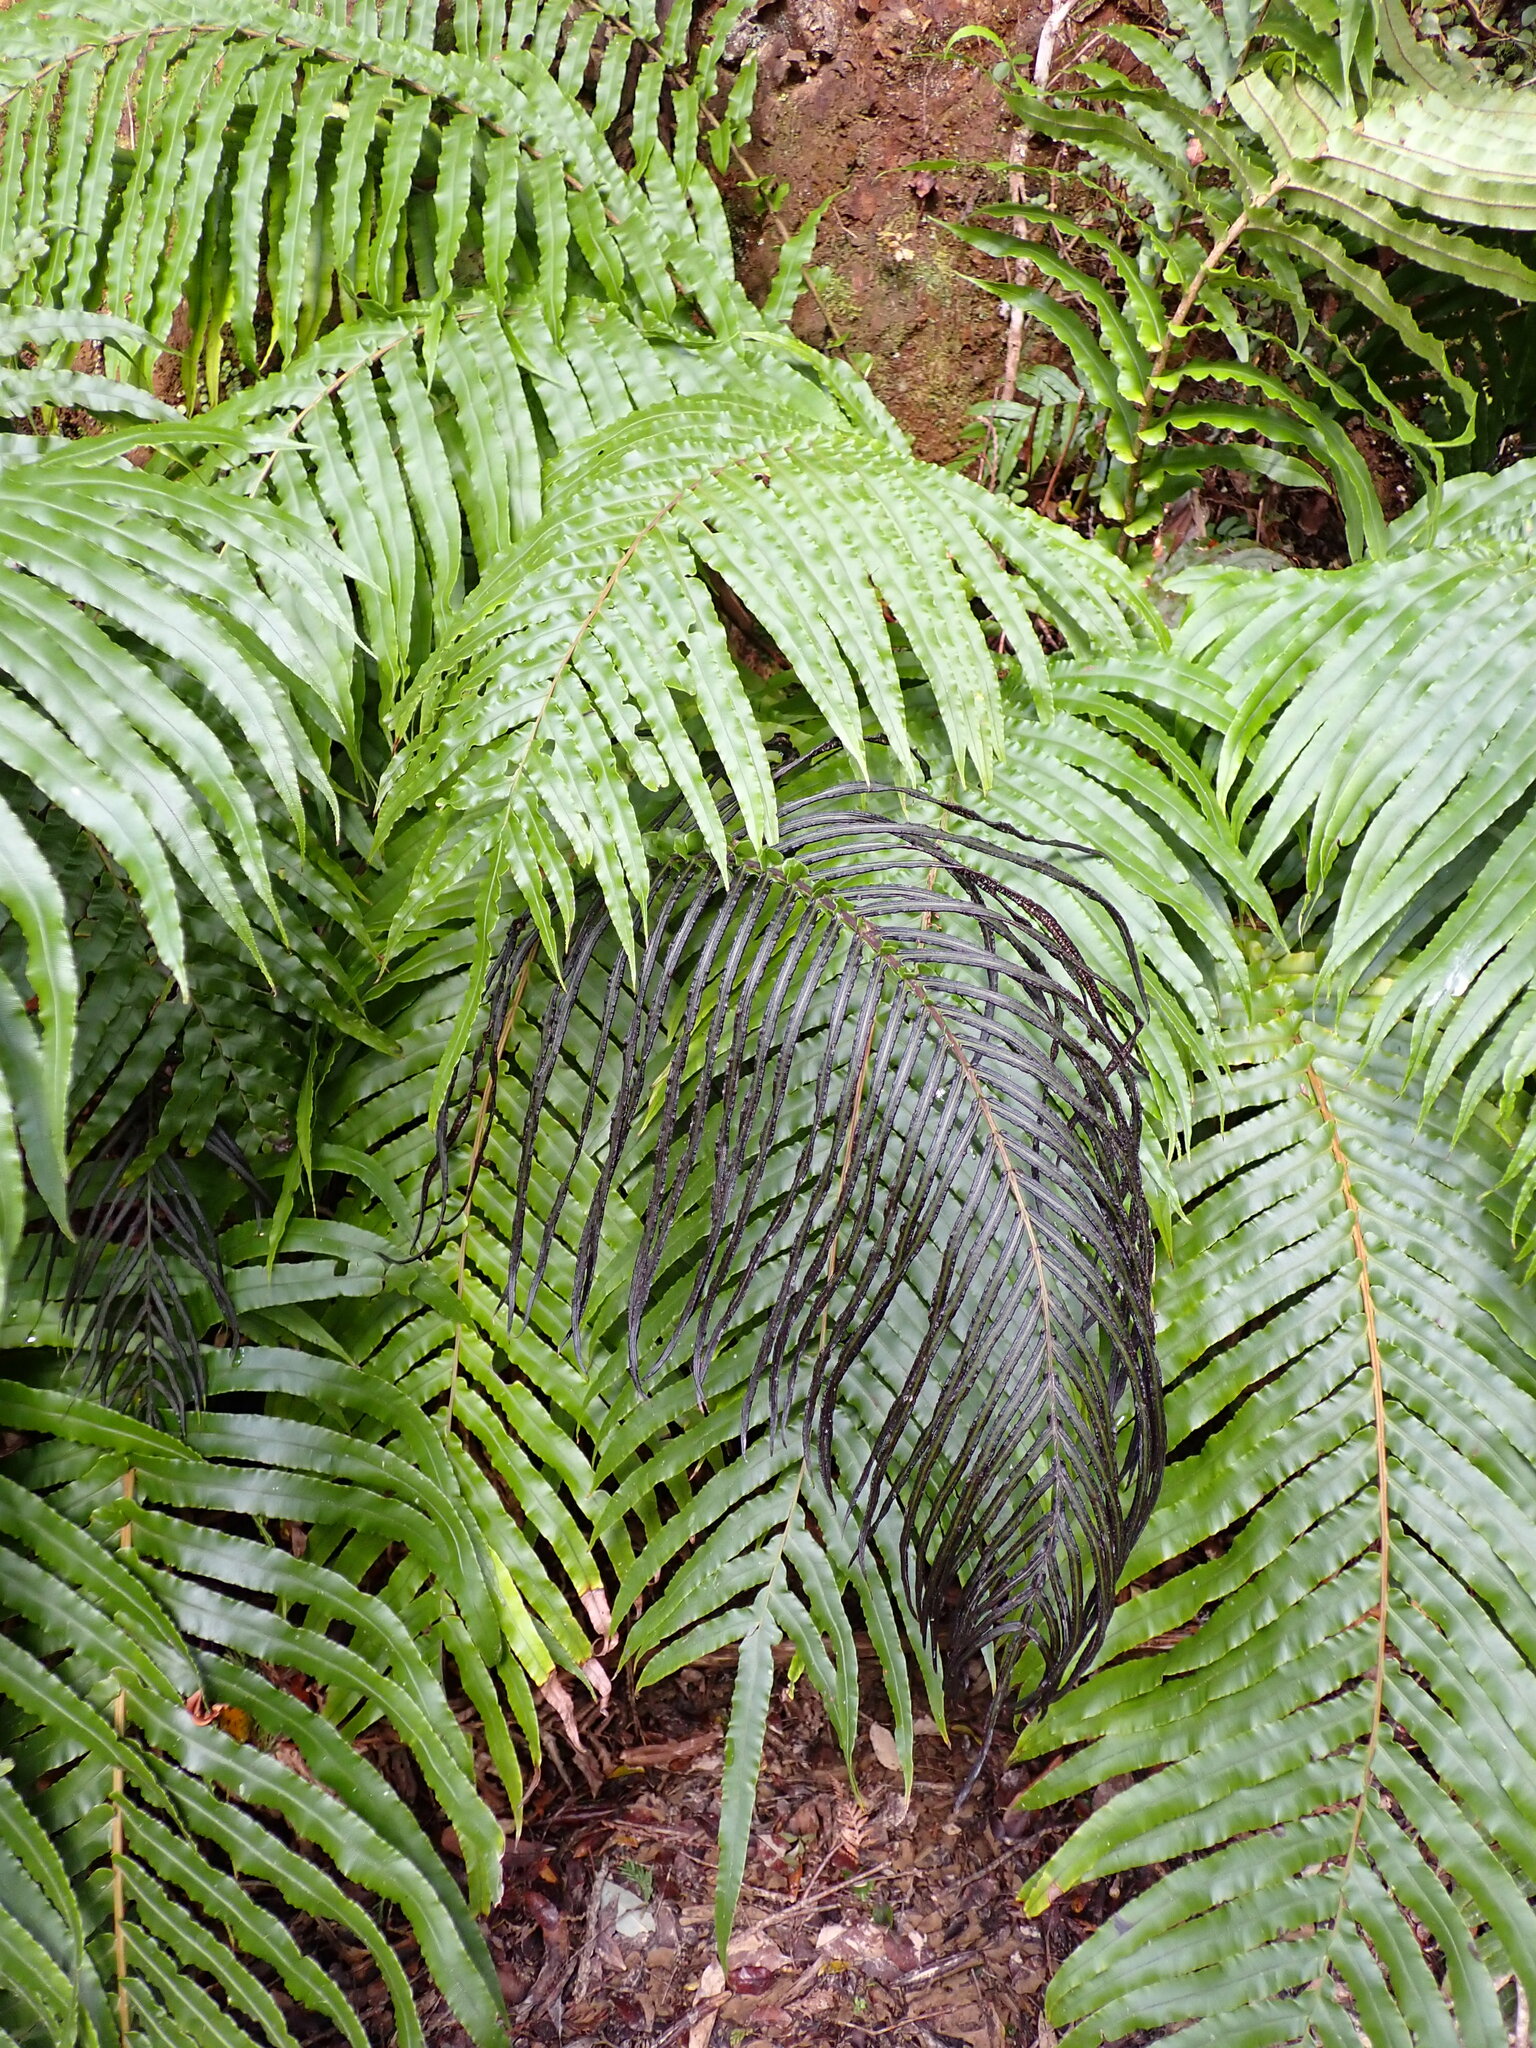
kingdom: Plantae
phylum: Tracheophyta
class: Polypodiopsida
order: Polypodiales
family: Blechnaceae
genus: Parablechnum
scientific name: Parablechnum novae-zelandiae
